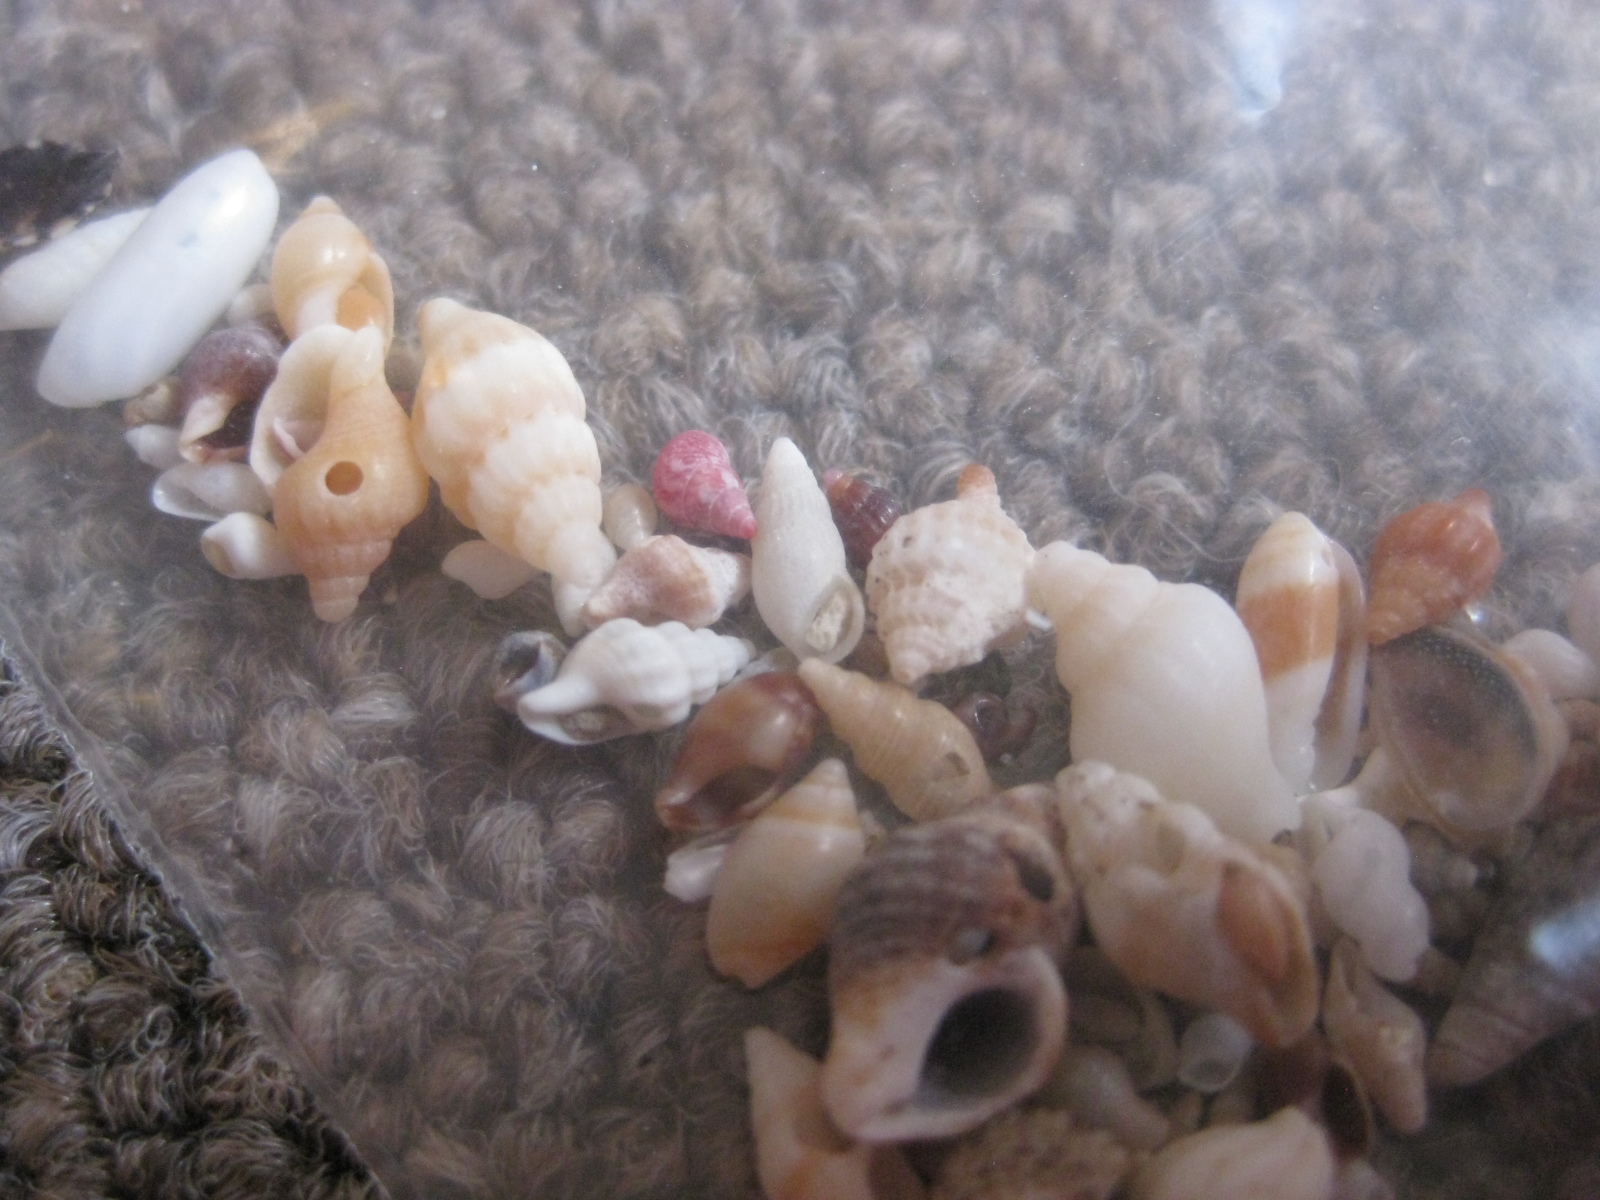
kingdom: Animalia
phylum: Mollusca
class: Gastropoda
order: Littorinimorpha
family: Eatoniellidae
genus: Eatoniella
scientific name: Eatoniella flammulata
